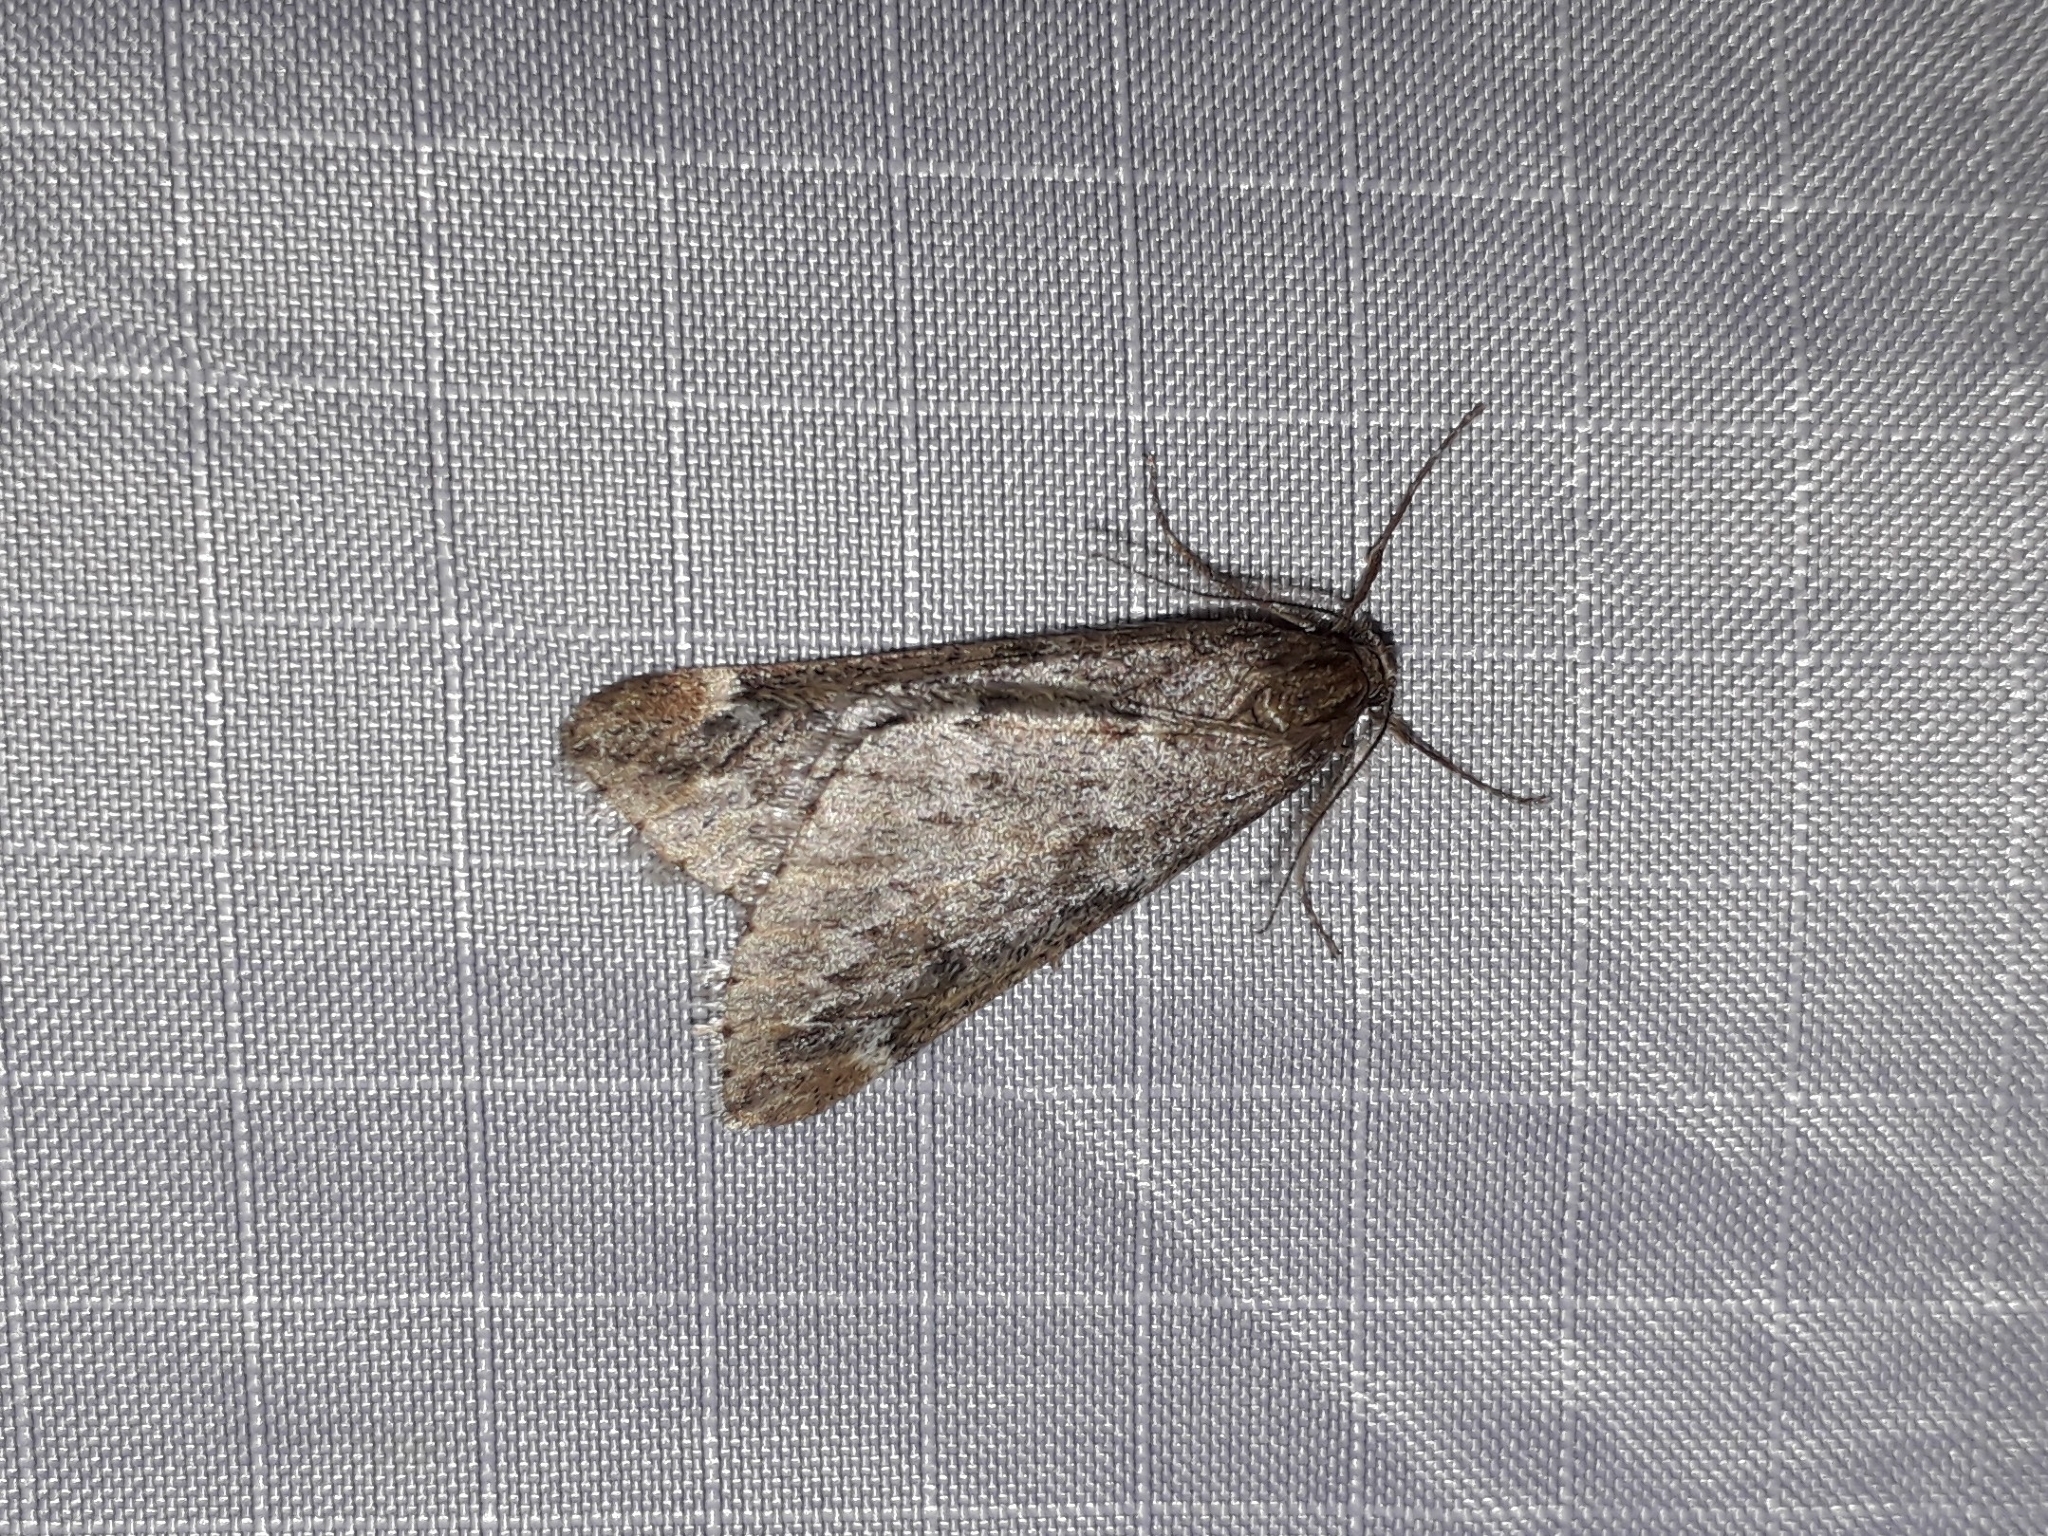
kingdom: Animalia
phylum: Arthropoda
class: Insecta
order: Lepidoptera
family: Geometridae
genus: Alsophila
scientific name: Alsophila aescularia
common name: March moth
